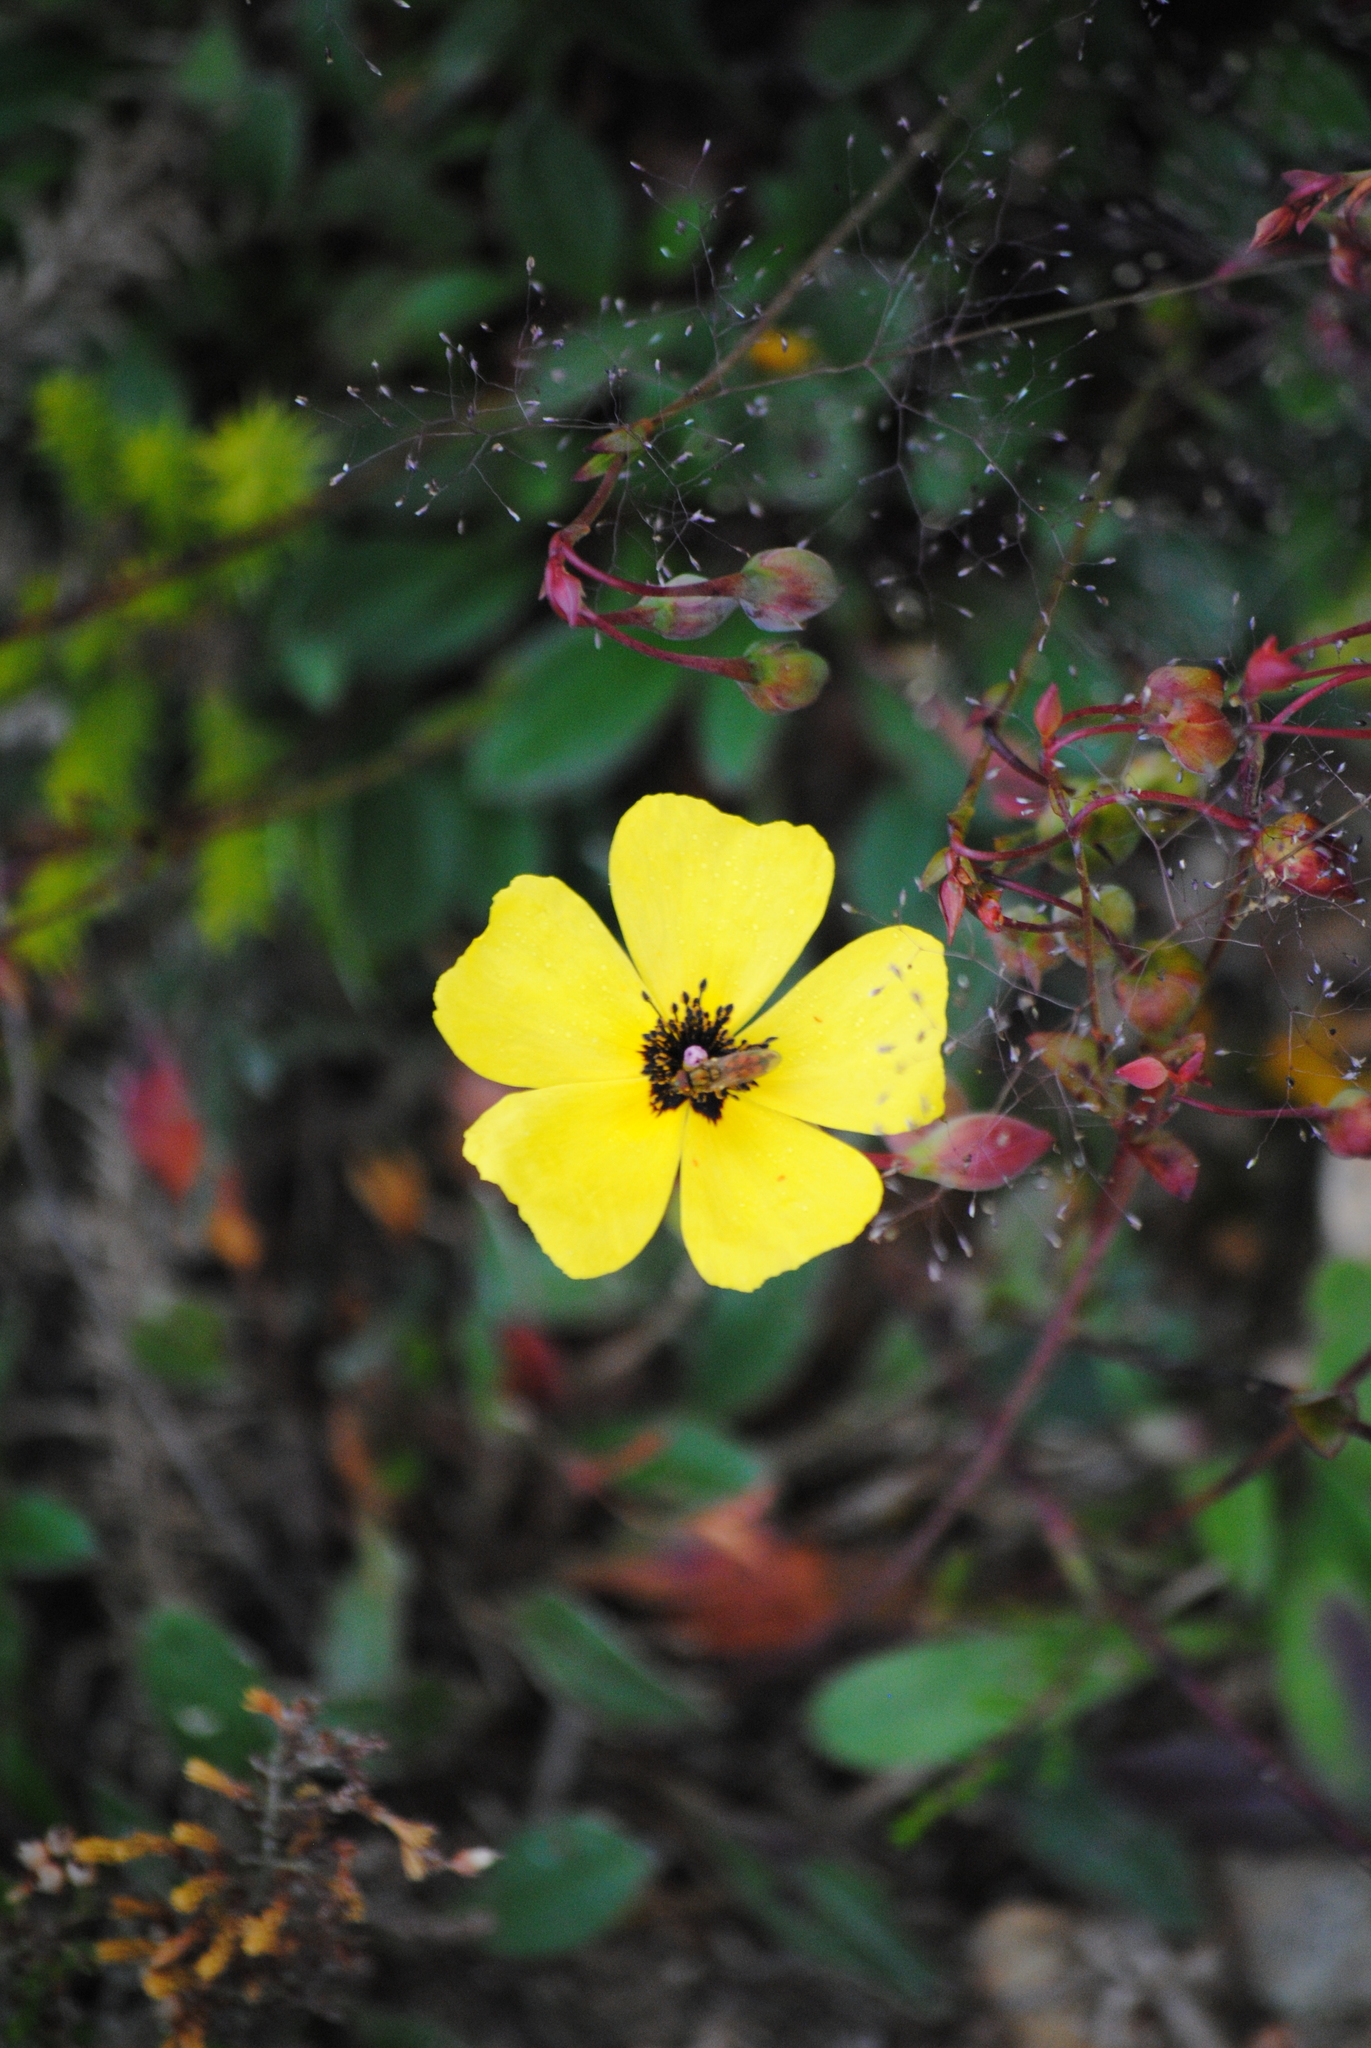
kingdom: Plantae
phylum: Tracheophyta
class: Magnoliopsida
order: Malvales
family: Cistaceae
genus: Tuberaria
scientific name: Tuberaria globulariifolia
